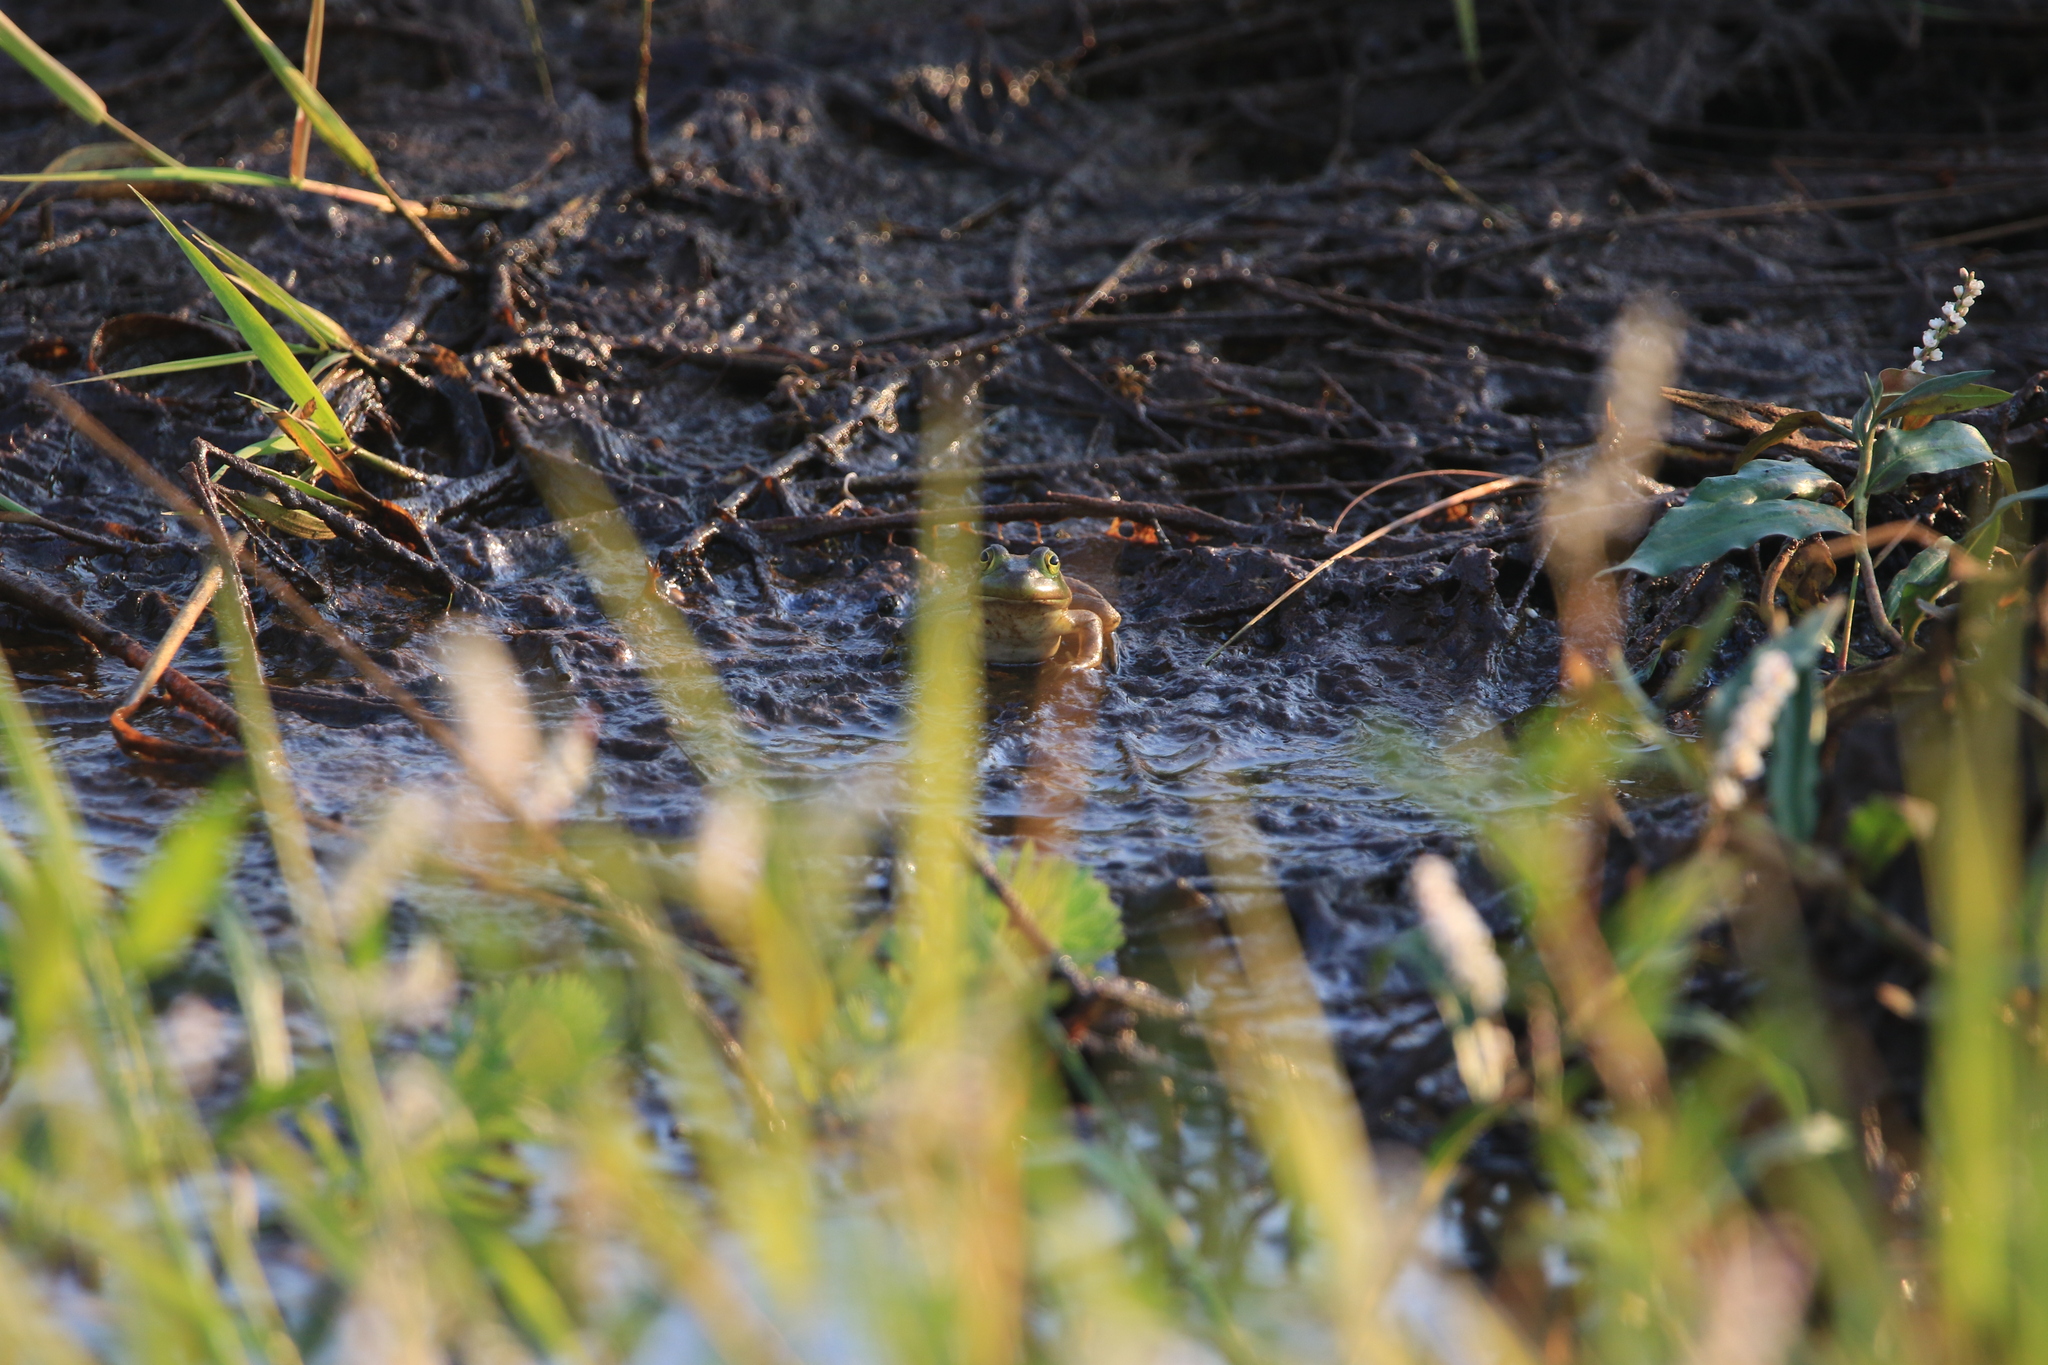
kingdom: Animalia
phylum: Chordata
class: Amphibia
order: Anura
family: Ranidae
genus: Lithobates
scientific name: Lithobates catesbeianus
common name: American bullfrog
